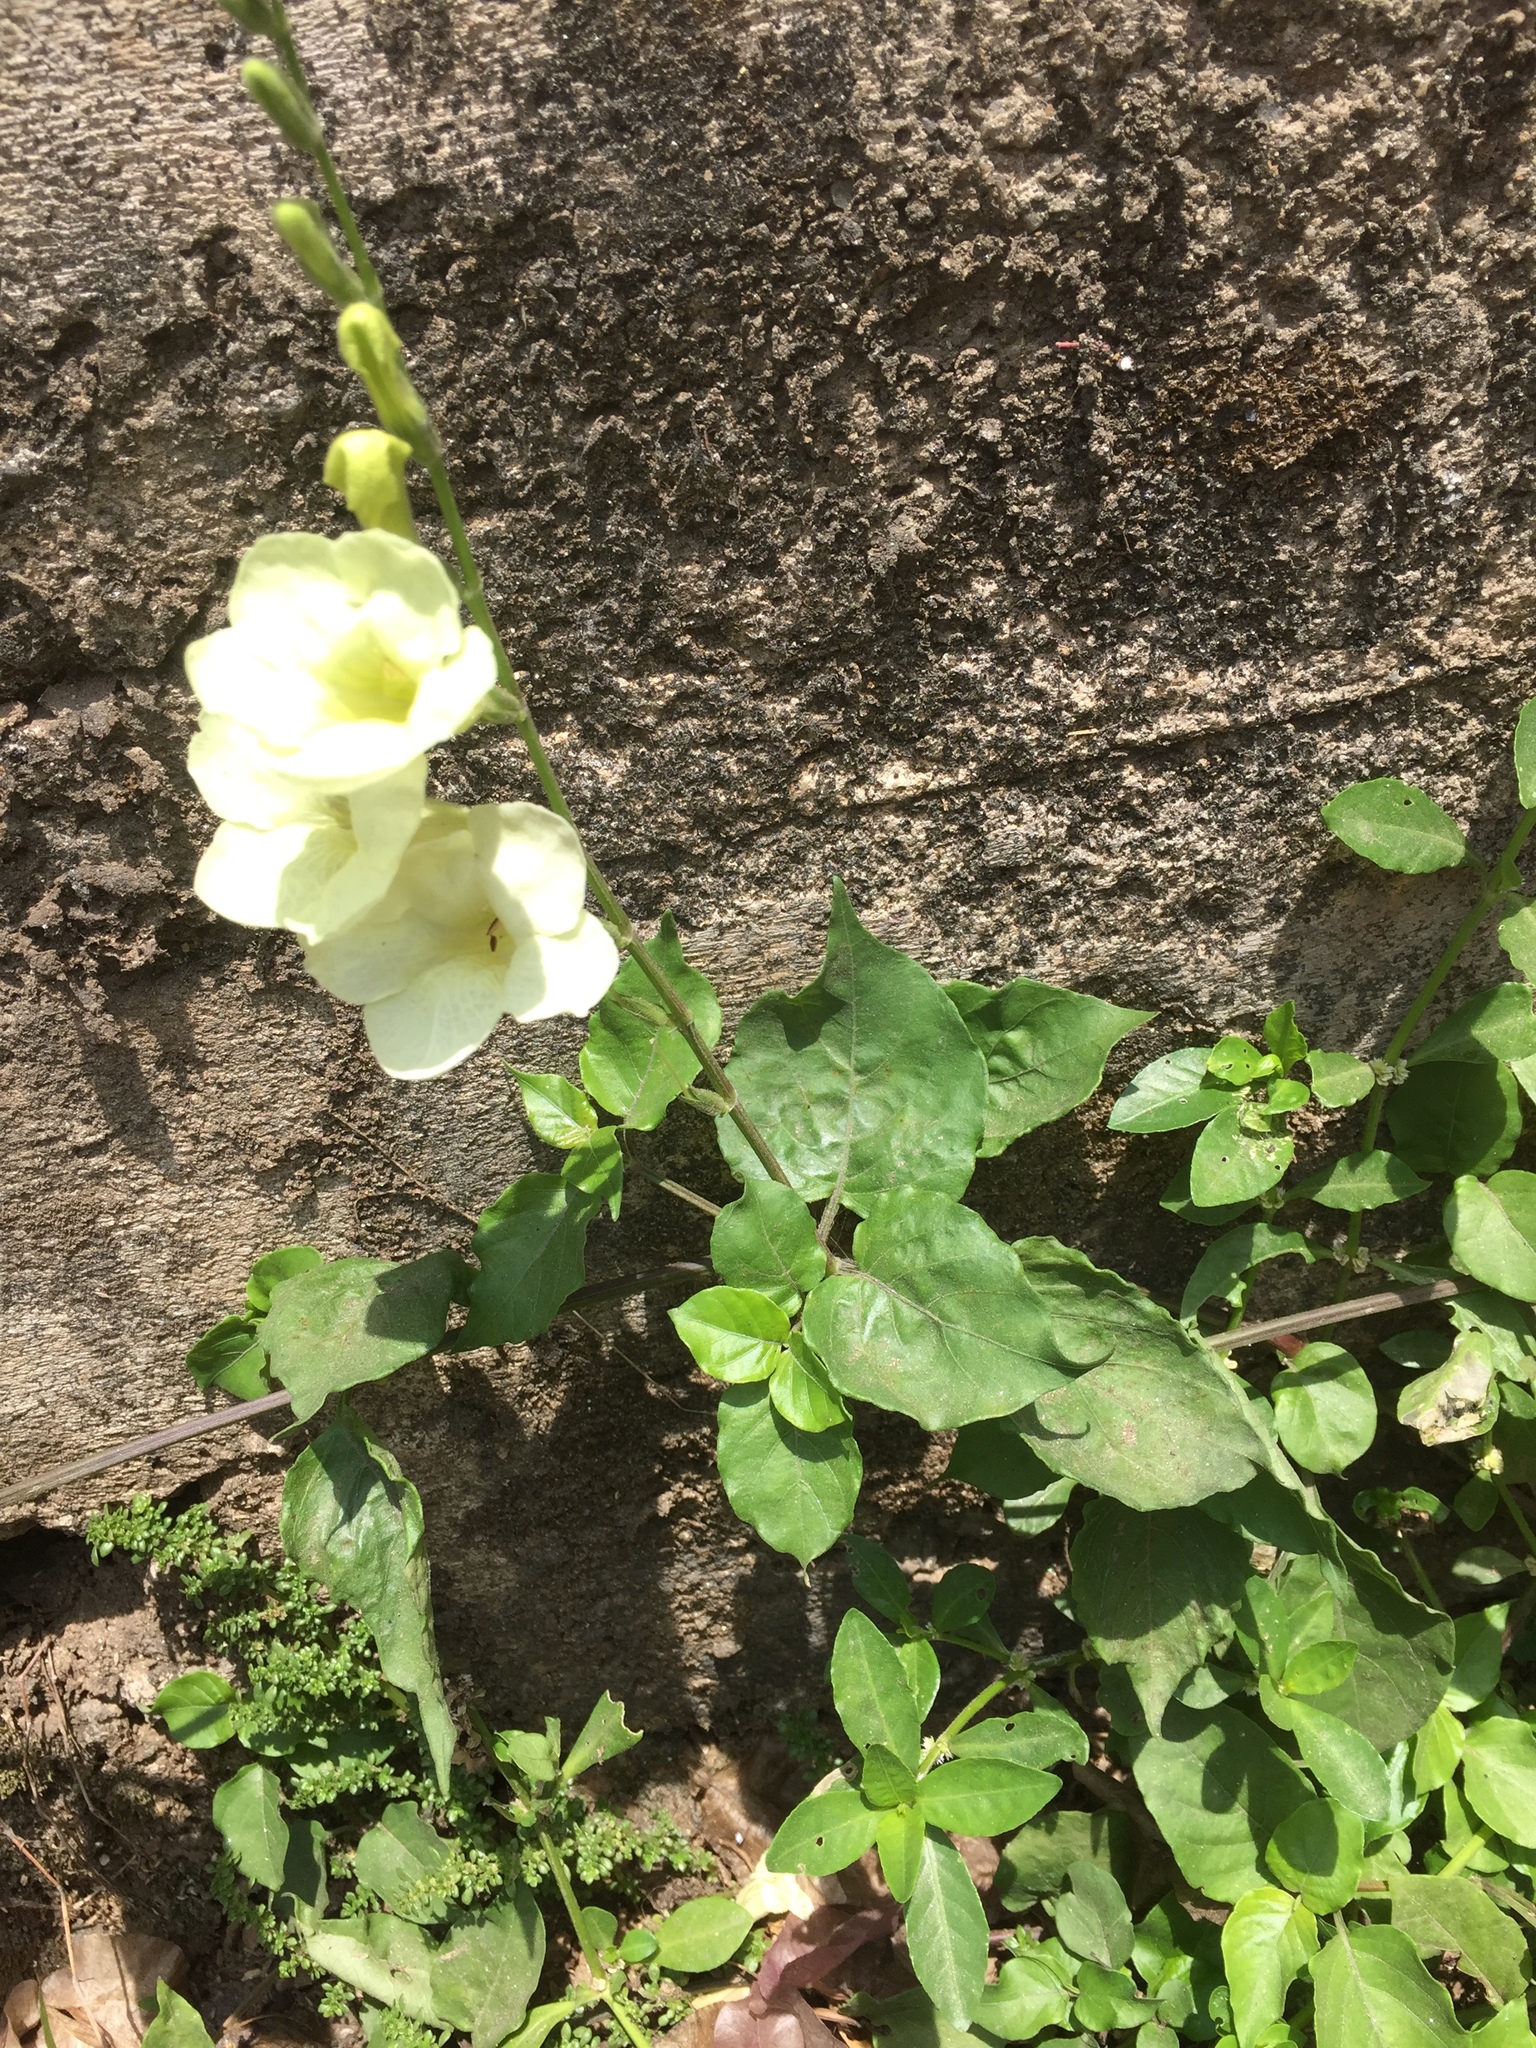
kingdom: Plantae
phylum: Tracheophyta
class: Magnoliopsida
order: Lamiales
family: Acanthaceae
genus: Asystasia
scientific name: Asystasia gangetica
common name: Chinese violet
